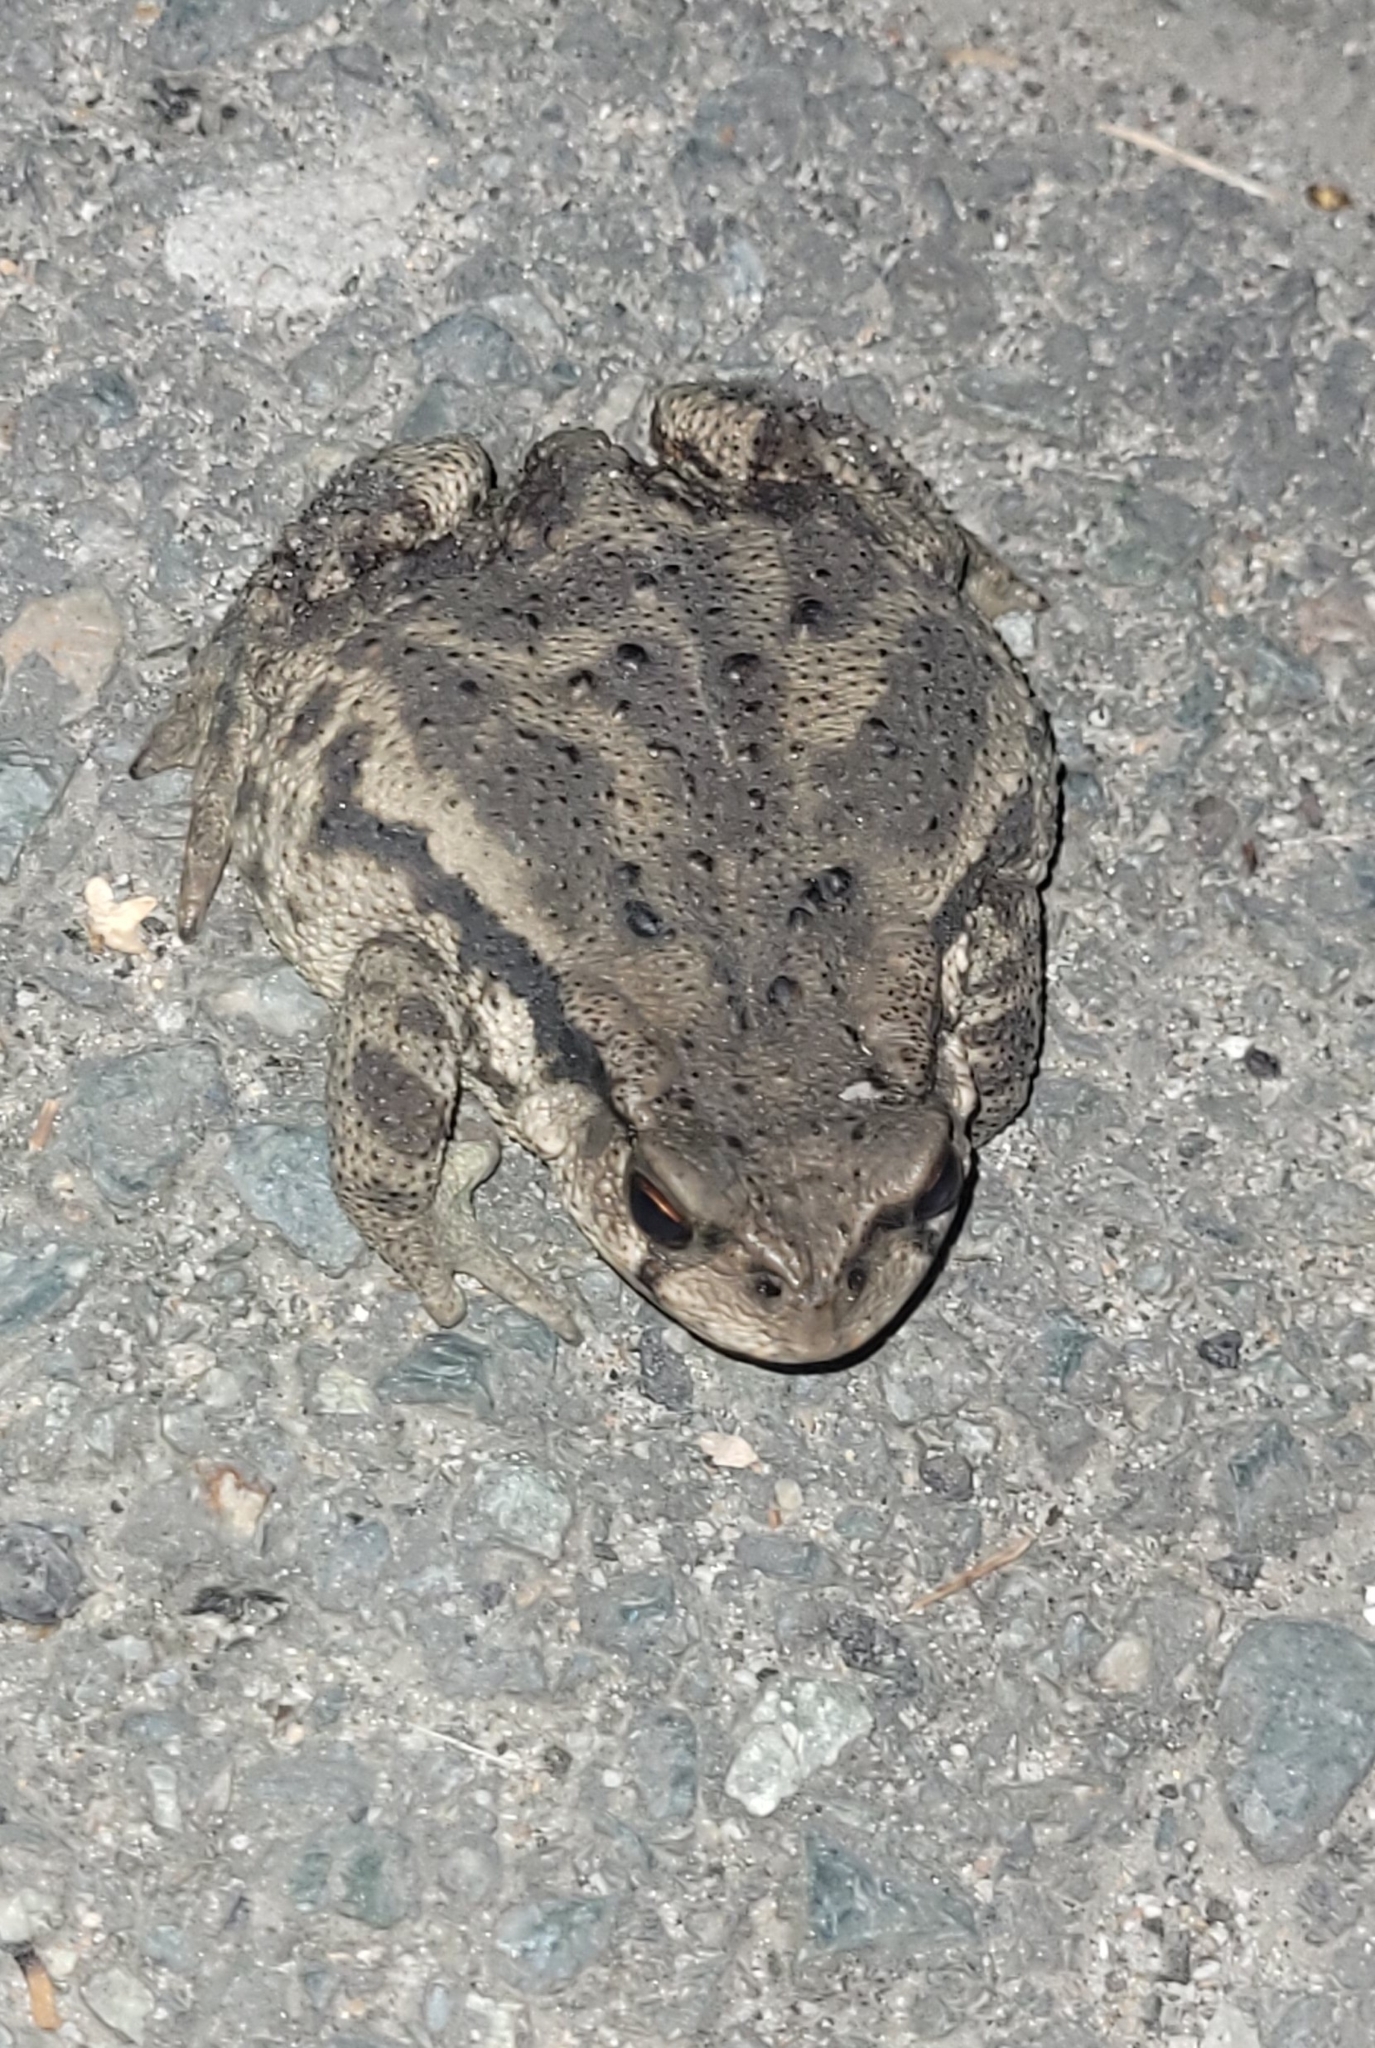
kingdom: Animalia
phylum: Chordata
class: Amphibia
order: Anura
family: Bufonidae
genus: Bufo
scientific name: Bufo gargarizans
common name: Asiatic toad
